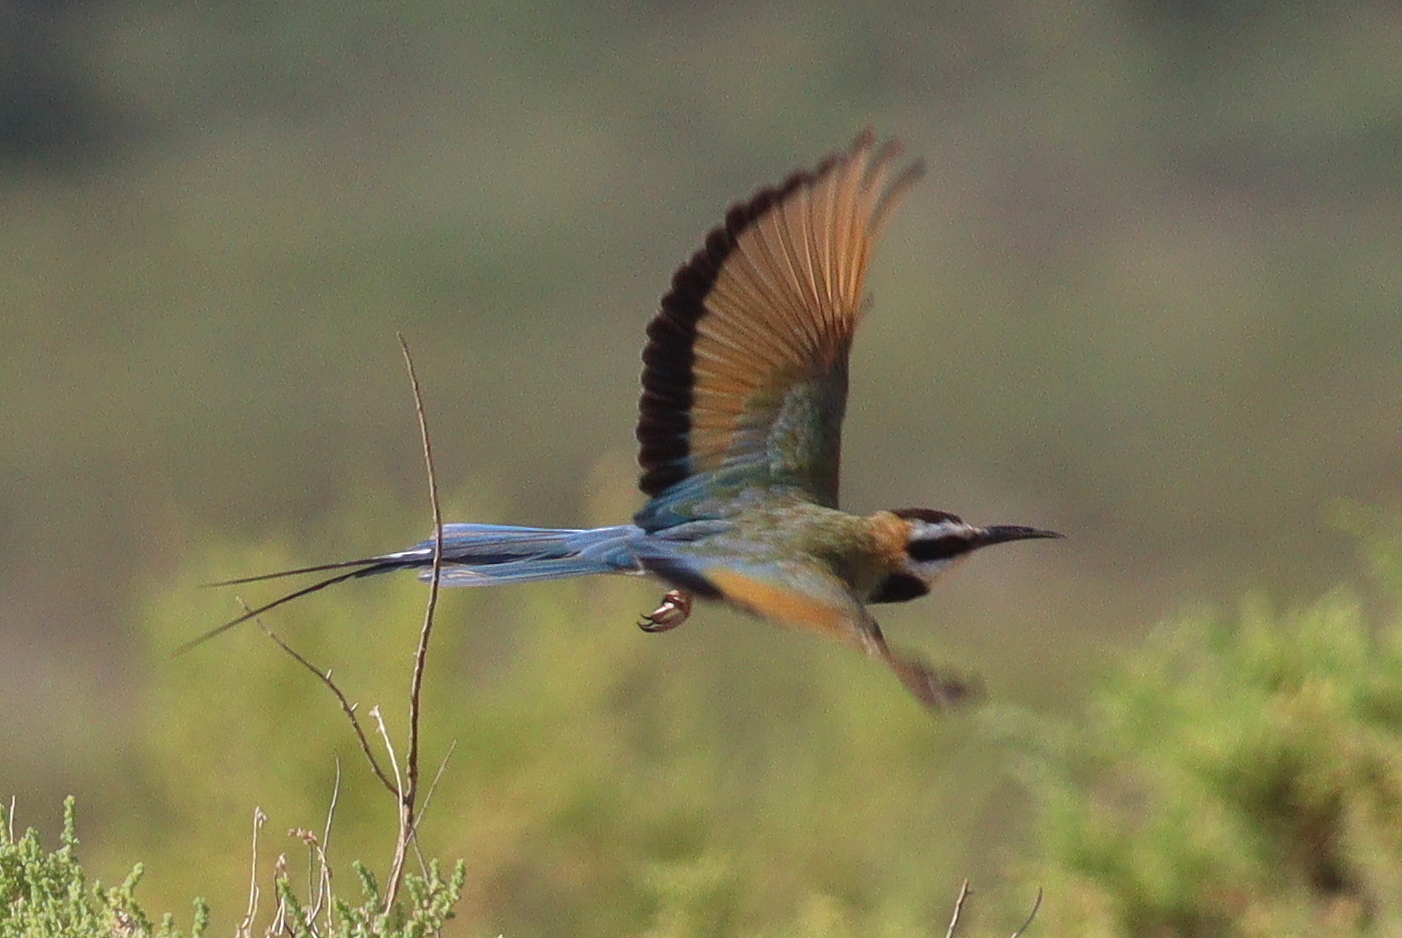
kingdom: Animalia
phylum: Chordata
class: Aves
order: Coraciiformes
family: Meropidae
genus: Merops
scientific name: Merops albicollis
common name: White-throated bee-eater
